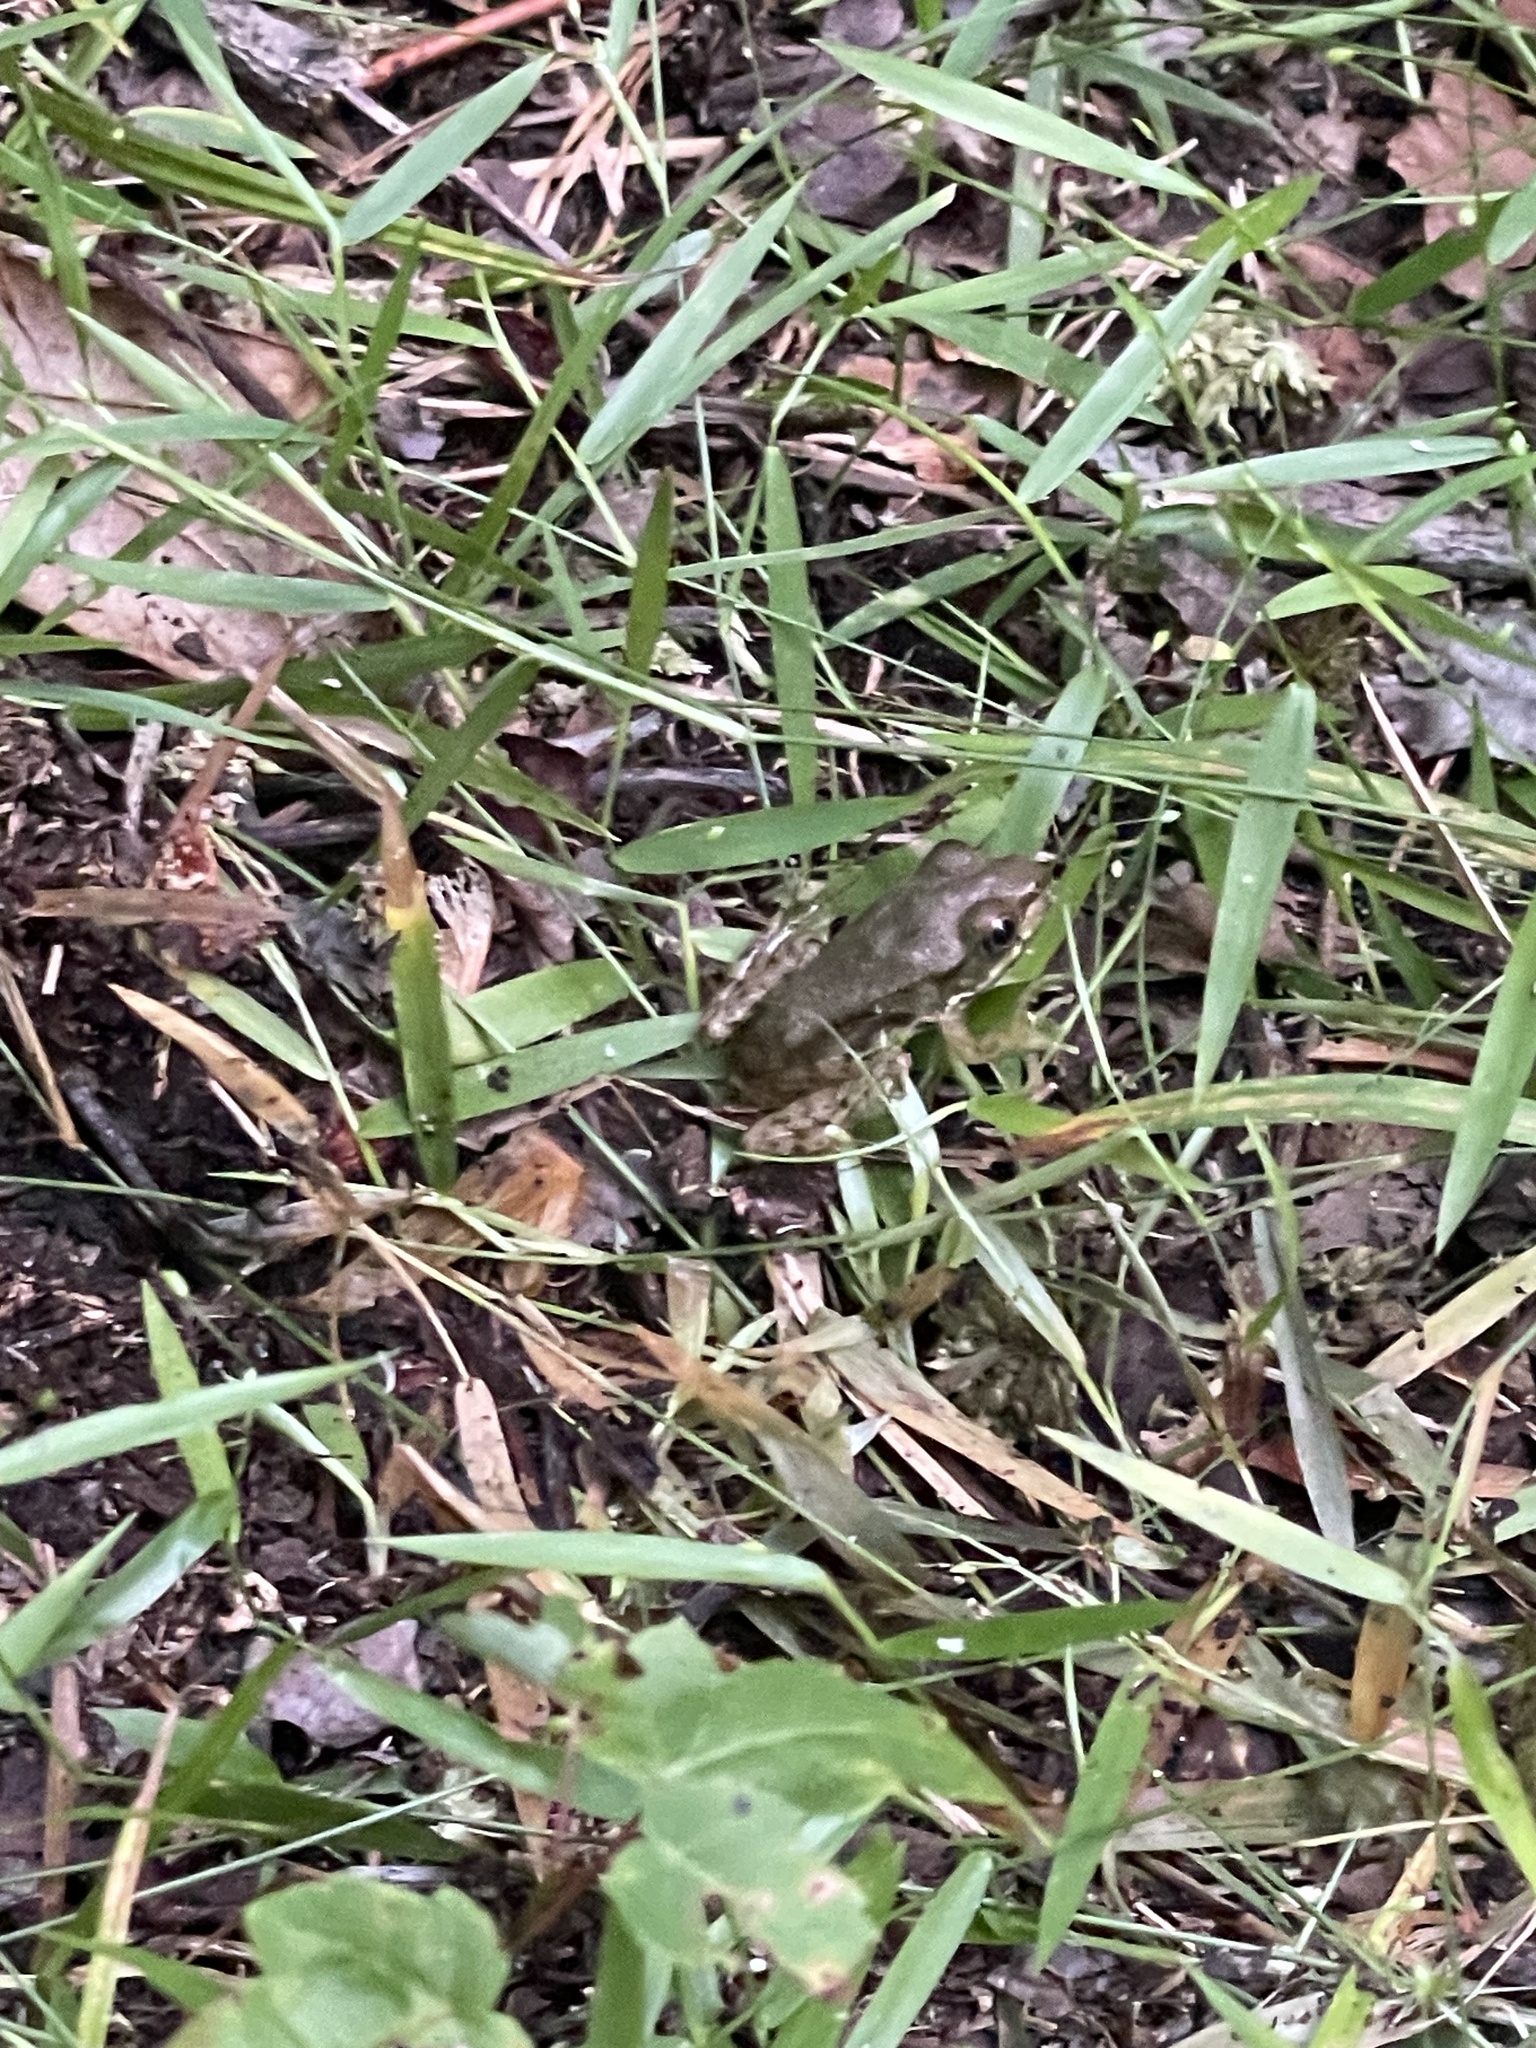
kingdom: Animalia
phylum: Chordata
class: Amphibia
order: Anura
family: Ranidae
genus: Lithobates
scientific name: Lithobates clamitans
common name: Green frog
